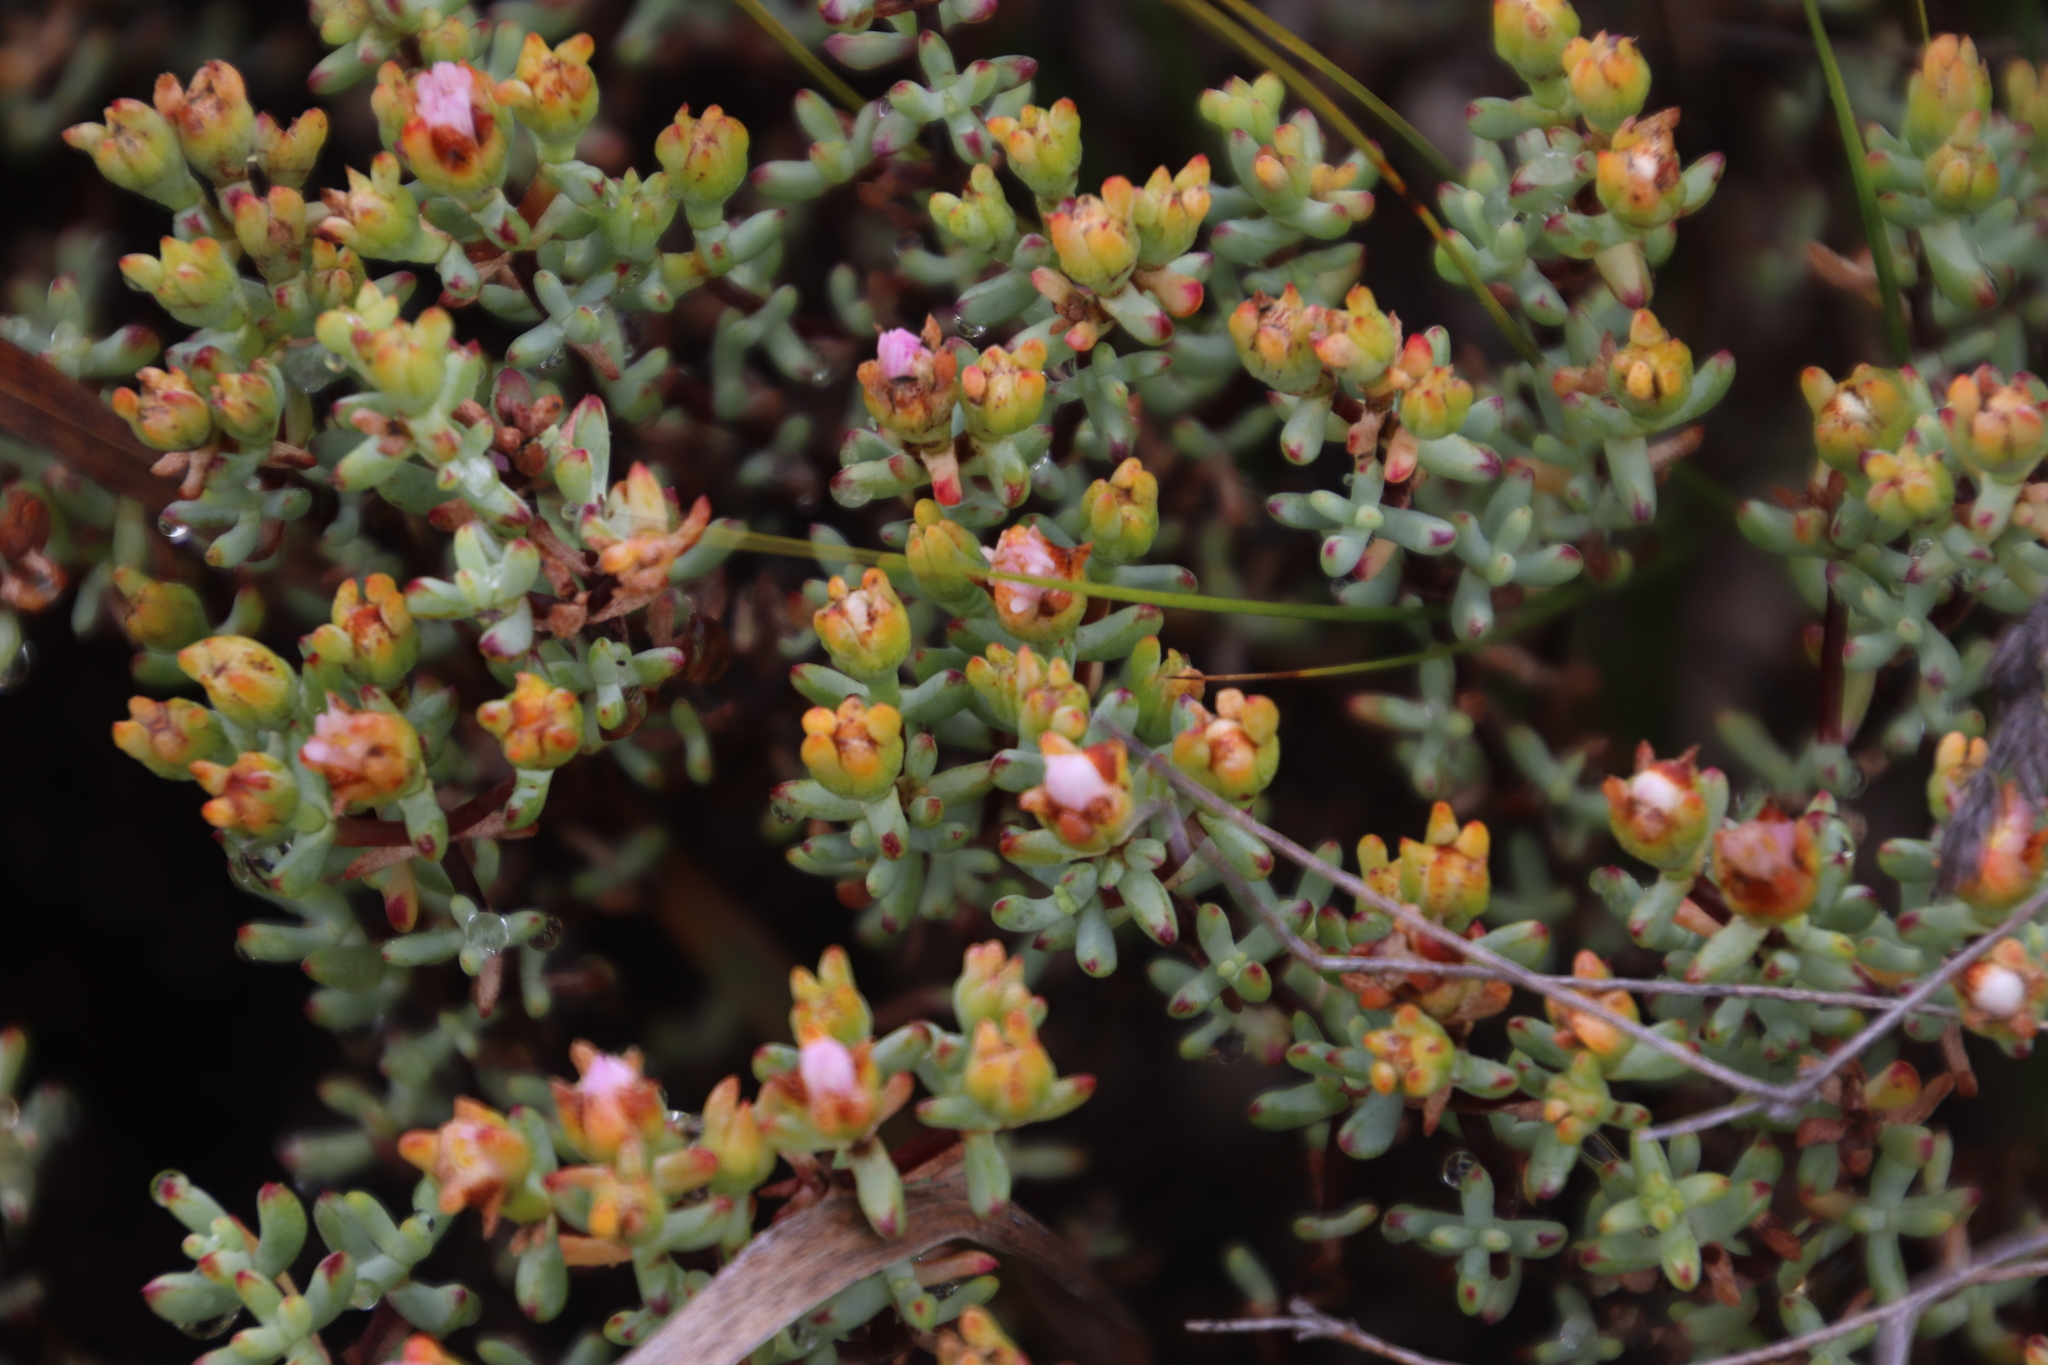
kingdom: Plantae
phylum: Tracheophyta
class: Magnoliopsida
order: Caryophyllales
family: Aizoaceae
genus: Lampranthus
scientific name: Lampranthus glomeratus
